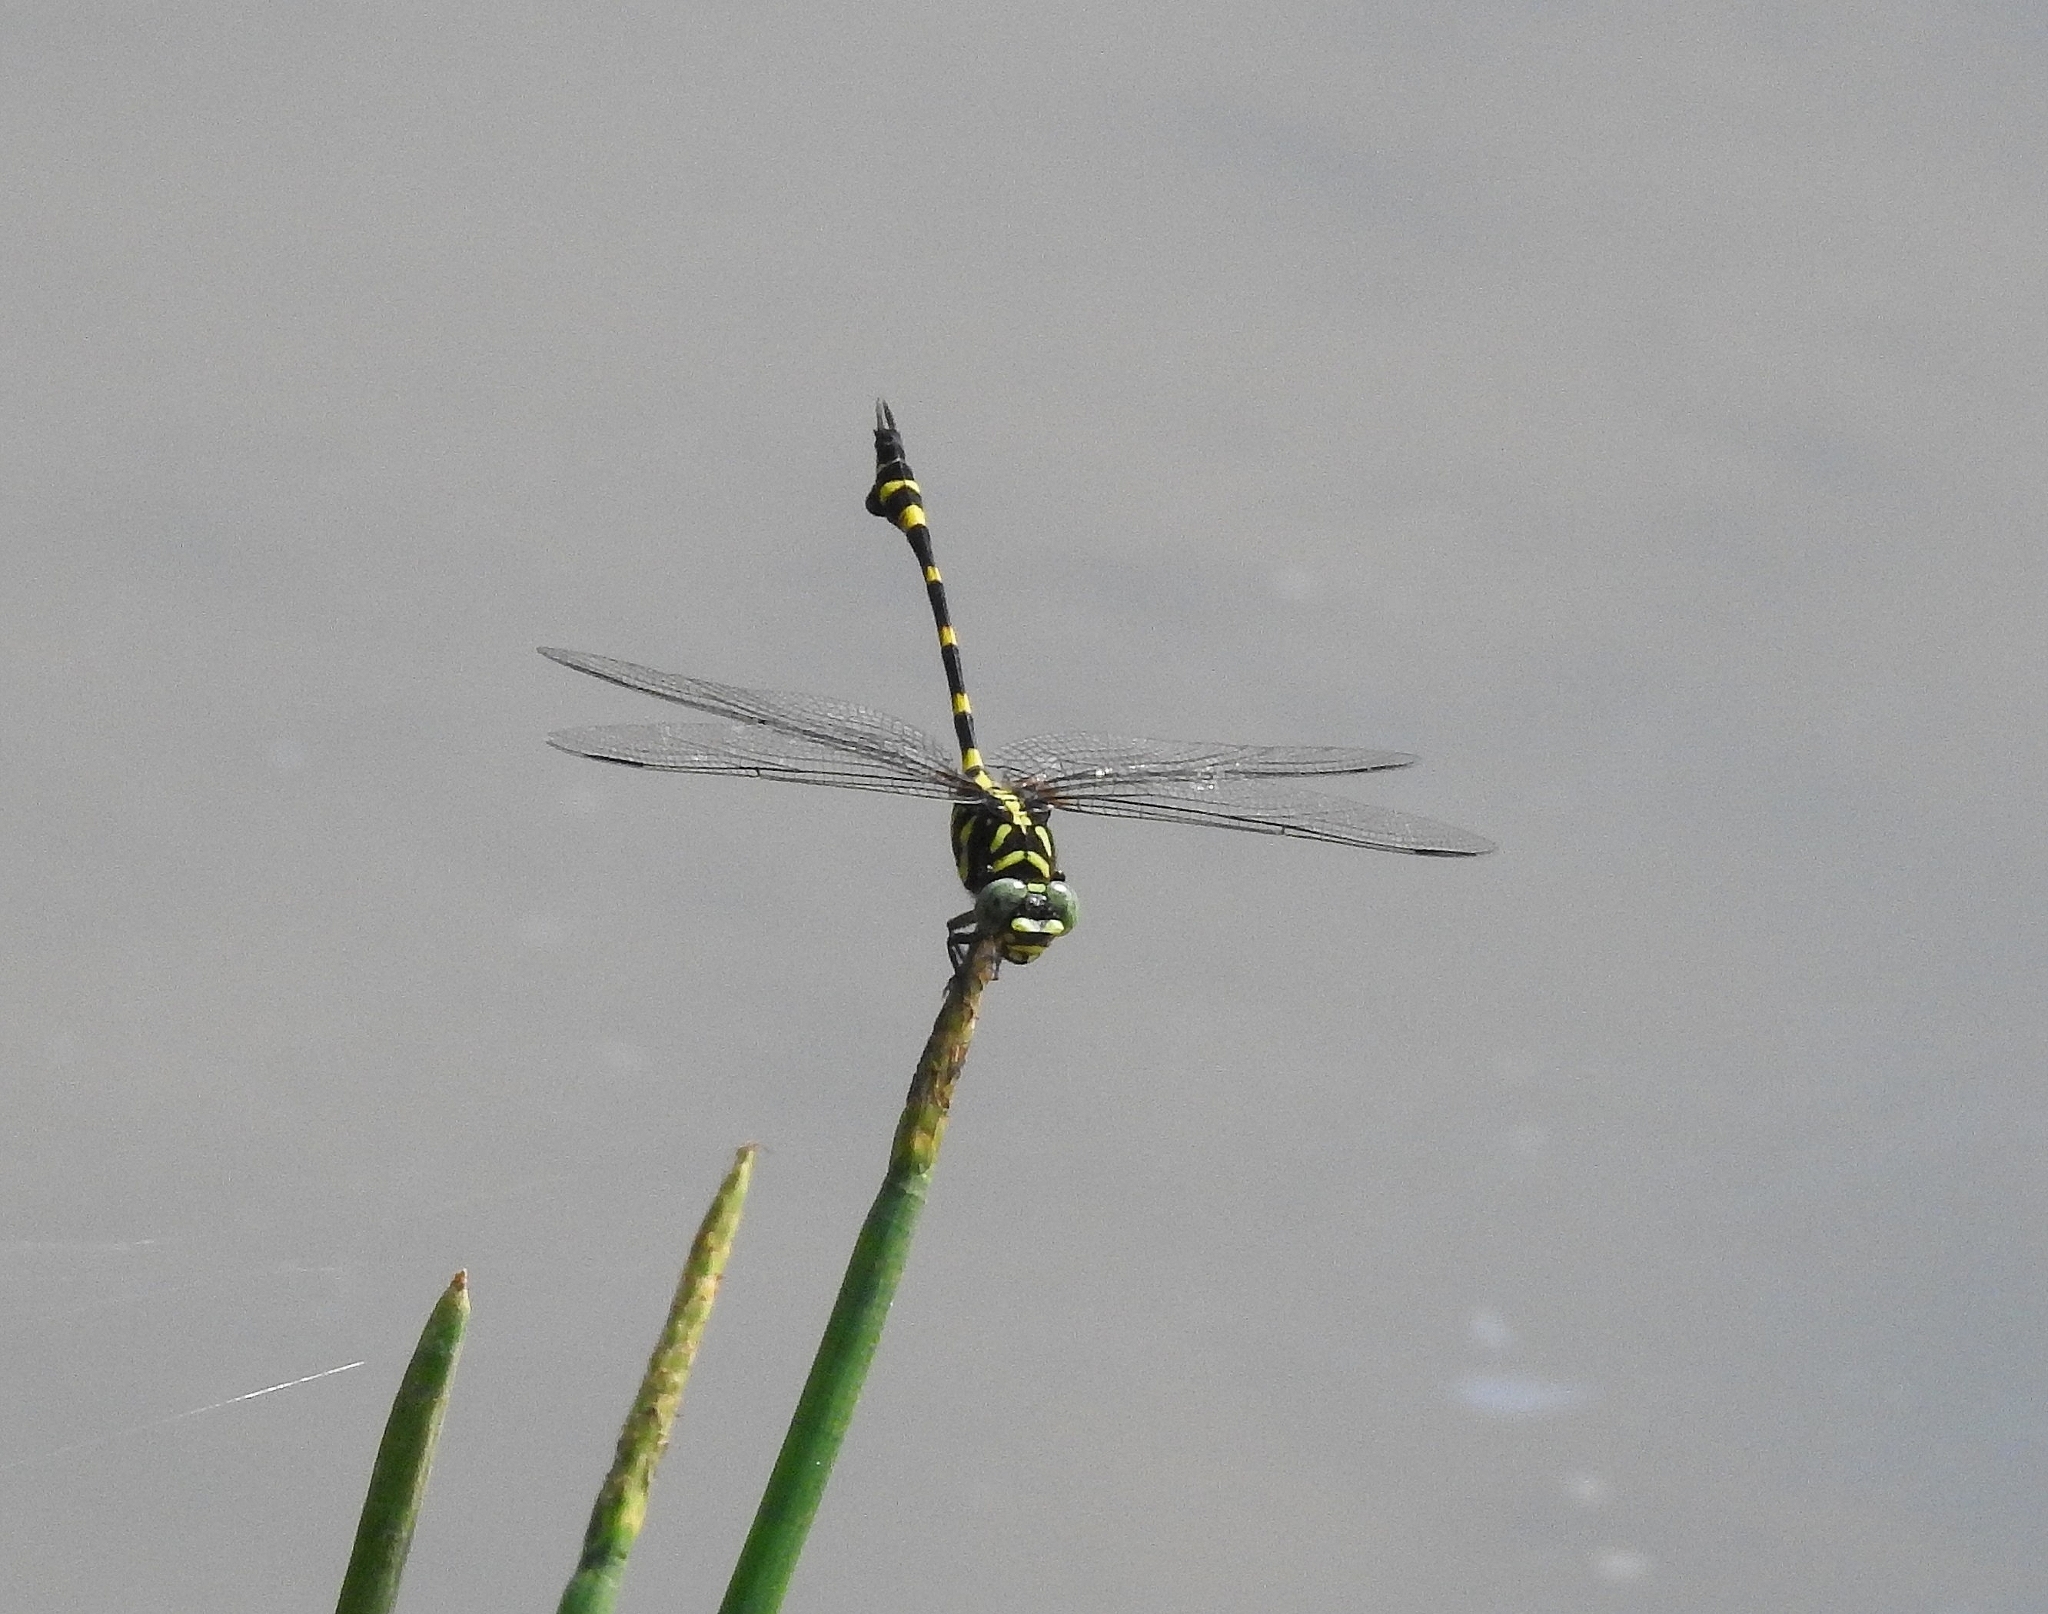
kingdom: Animalia
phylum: Arthropoda
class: Insecta
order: Odonata
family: Gomphidae
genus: Ictinogomphus
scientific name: Ictinogomphus rapax
